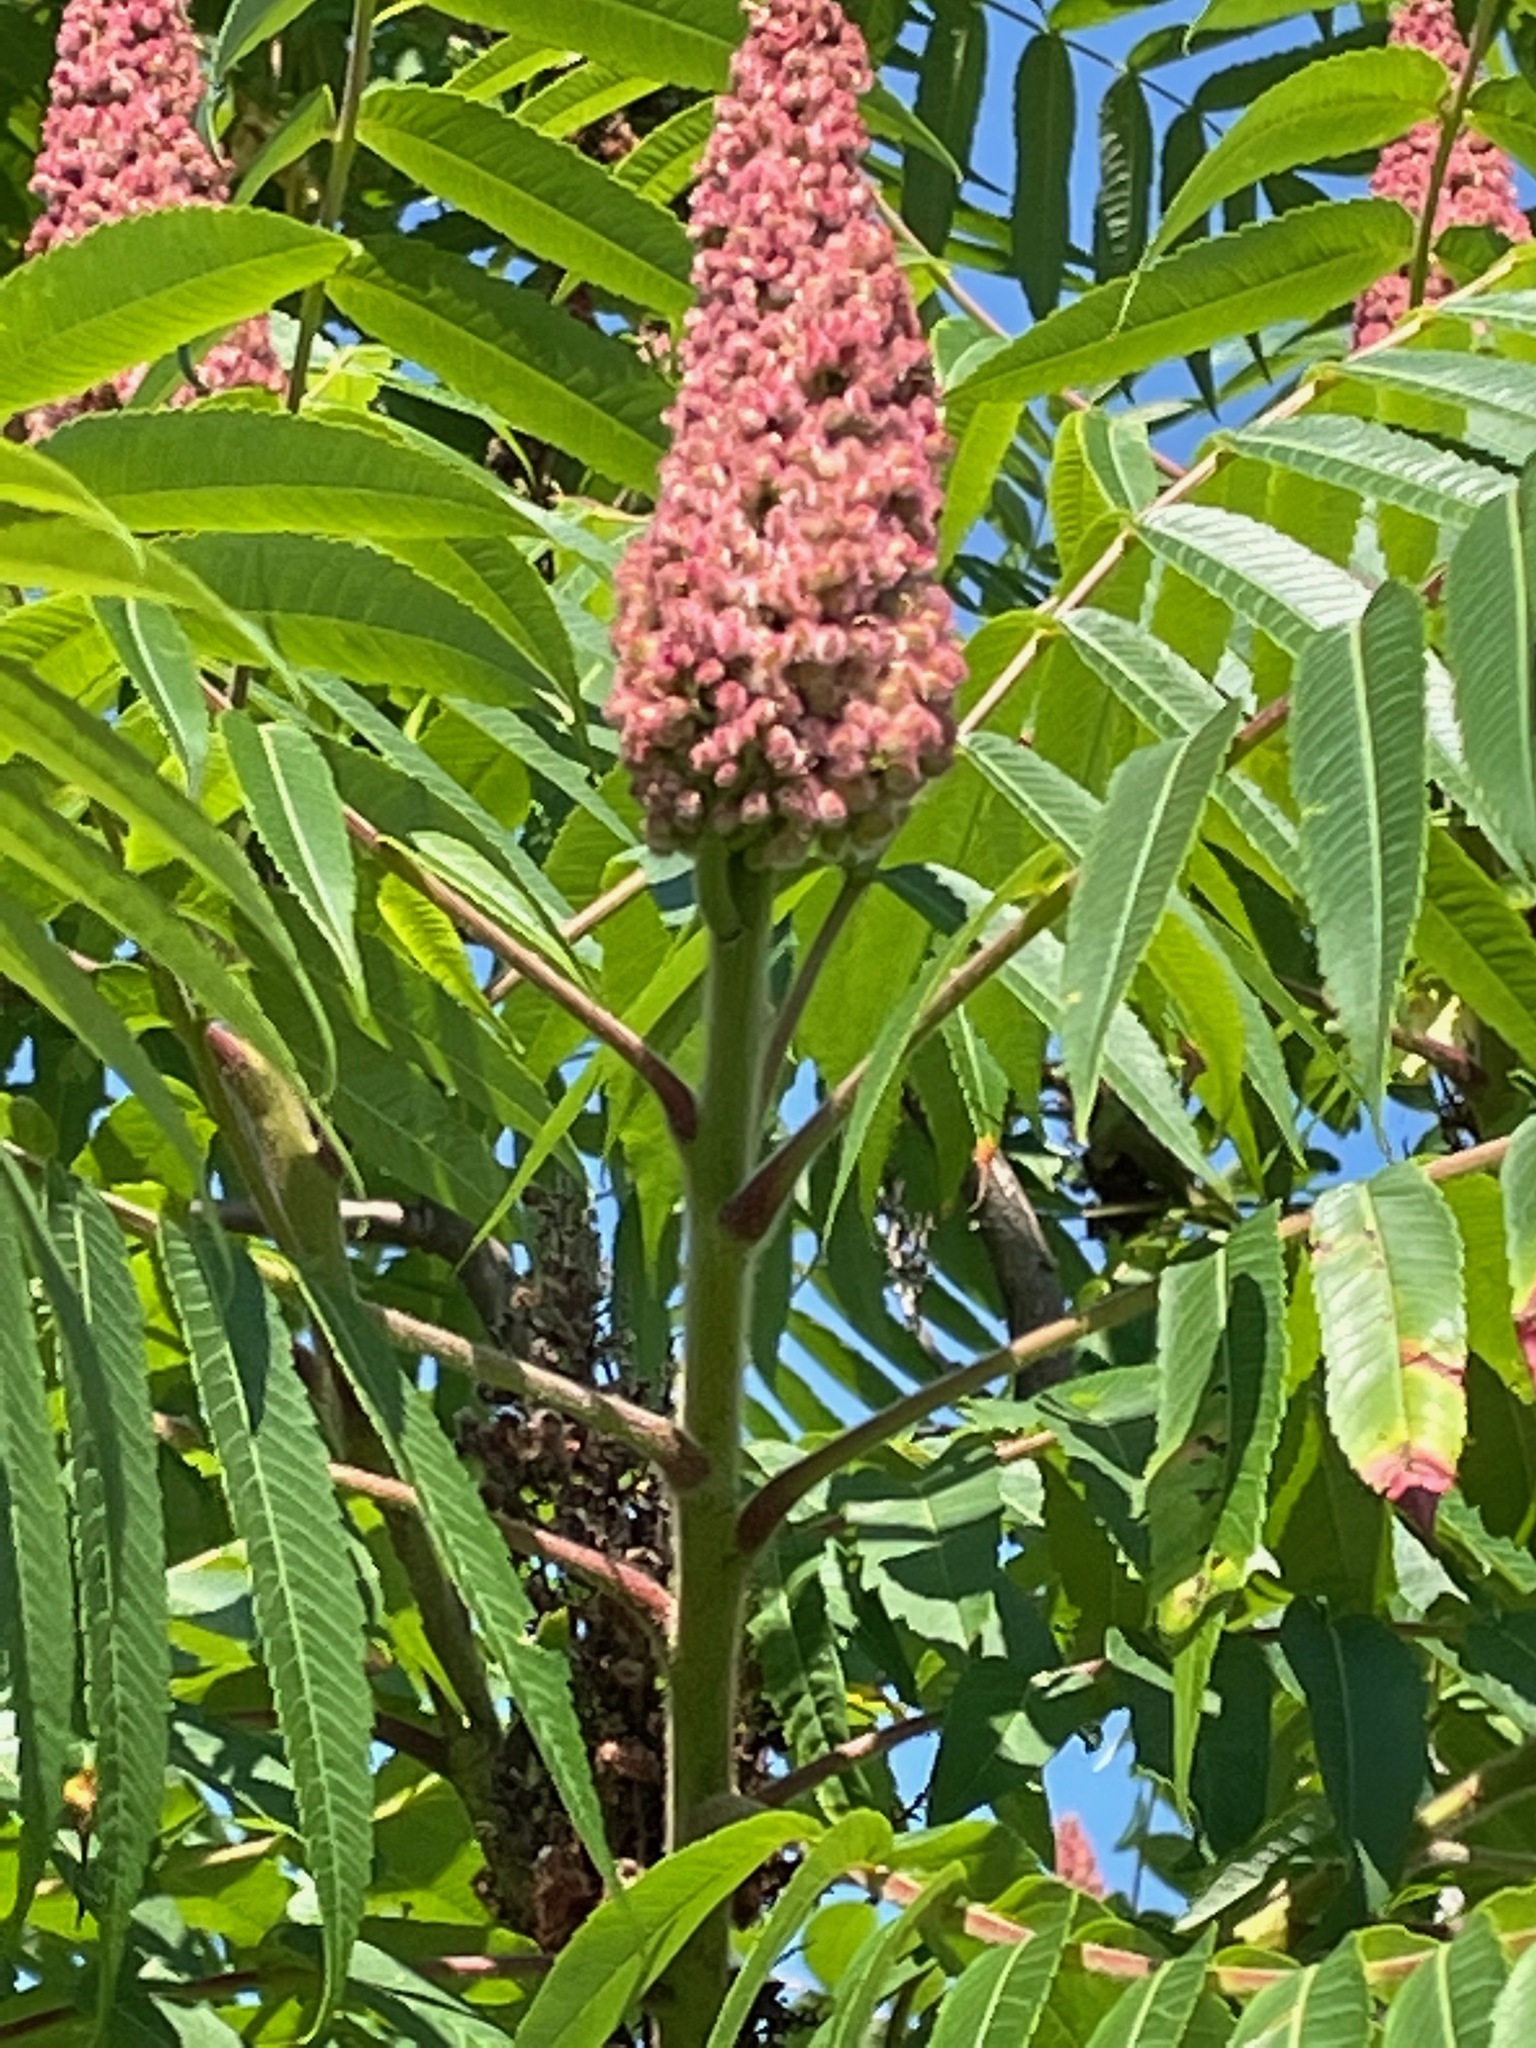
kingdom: Plantae
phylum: Tracheophyta
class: Magnoliopsida
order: Sapindales
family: Anacardiaceae
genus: Rhus
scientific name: Rhus typhina
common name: Staghorn sumac
